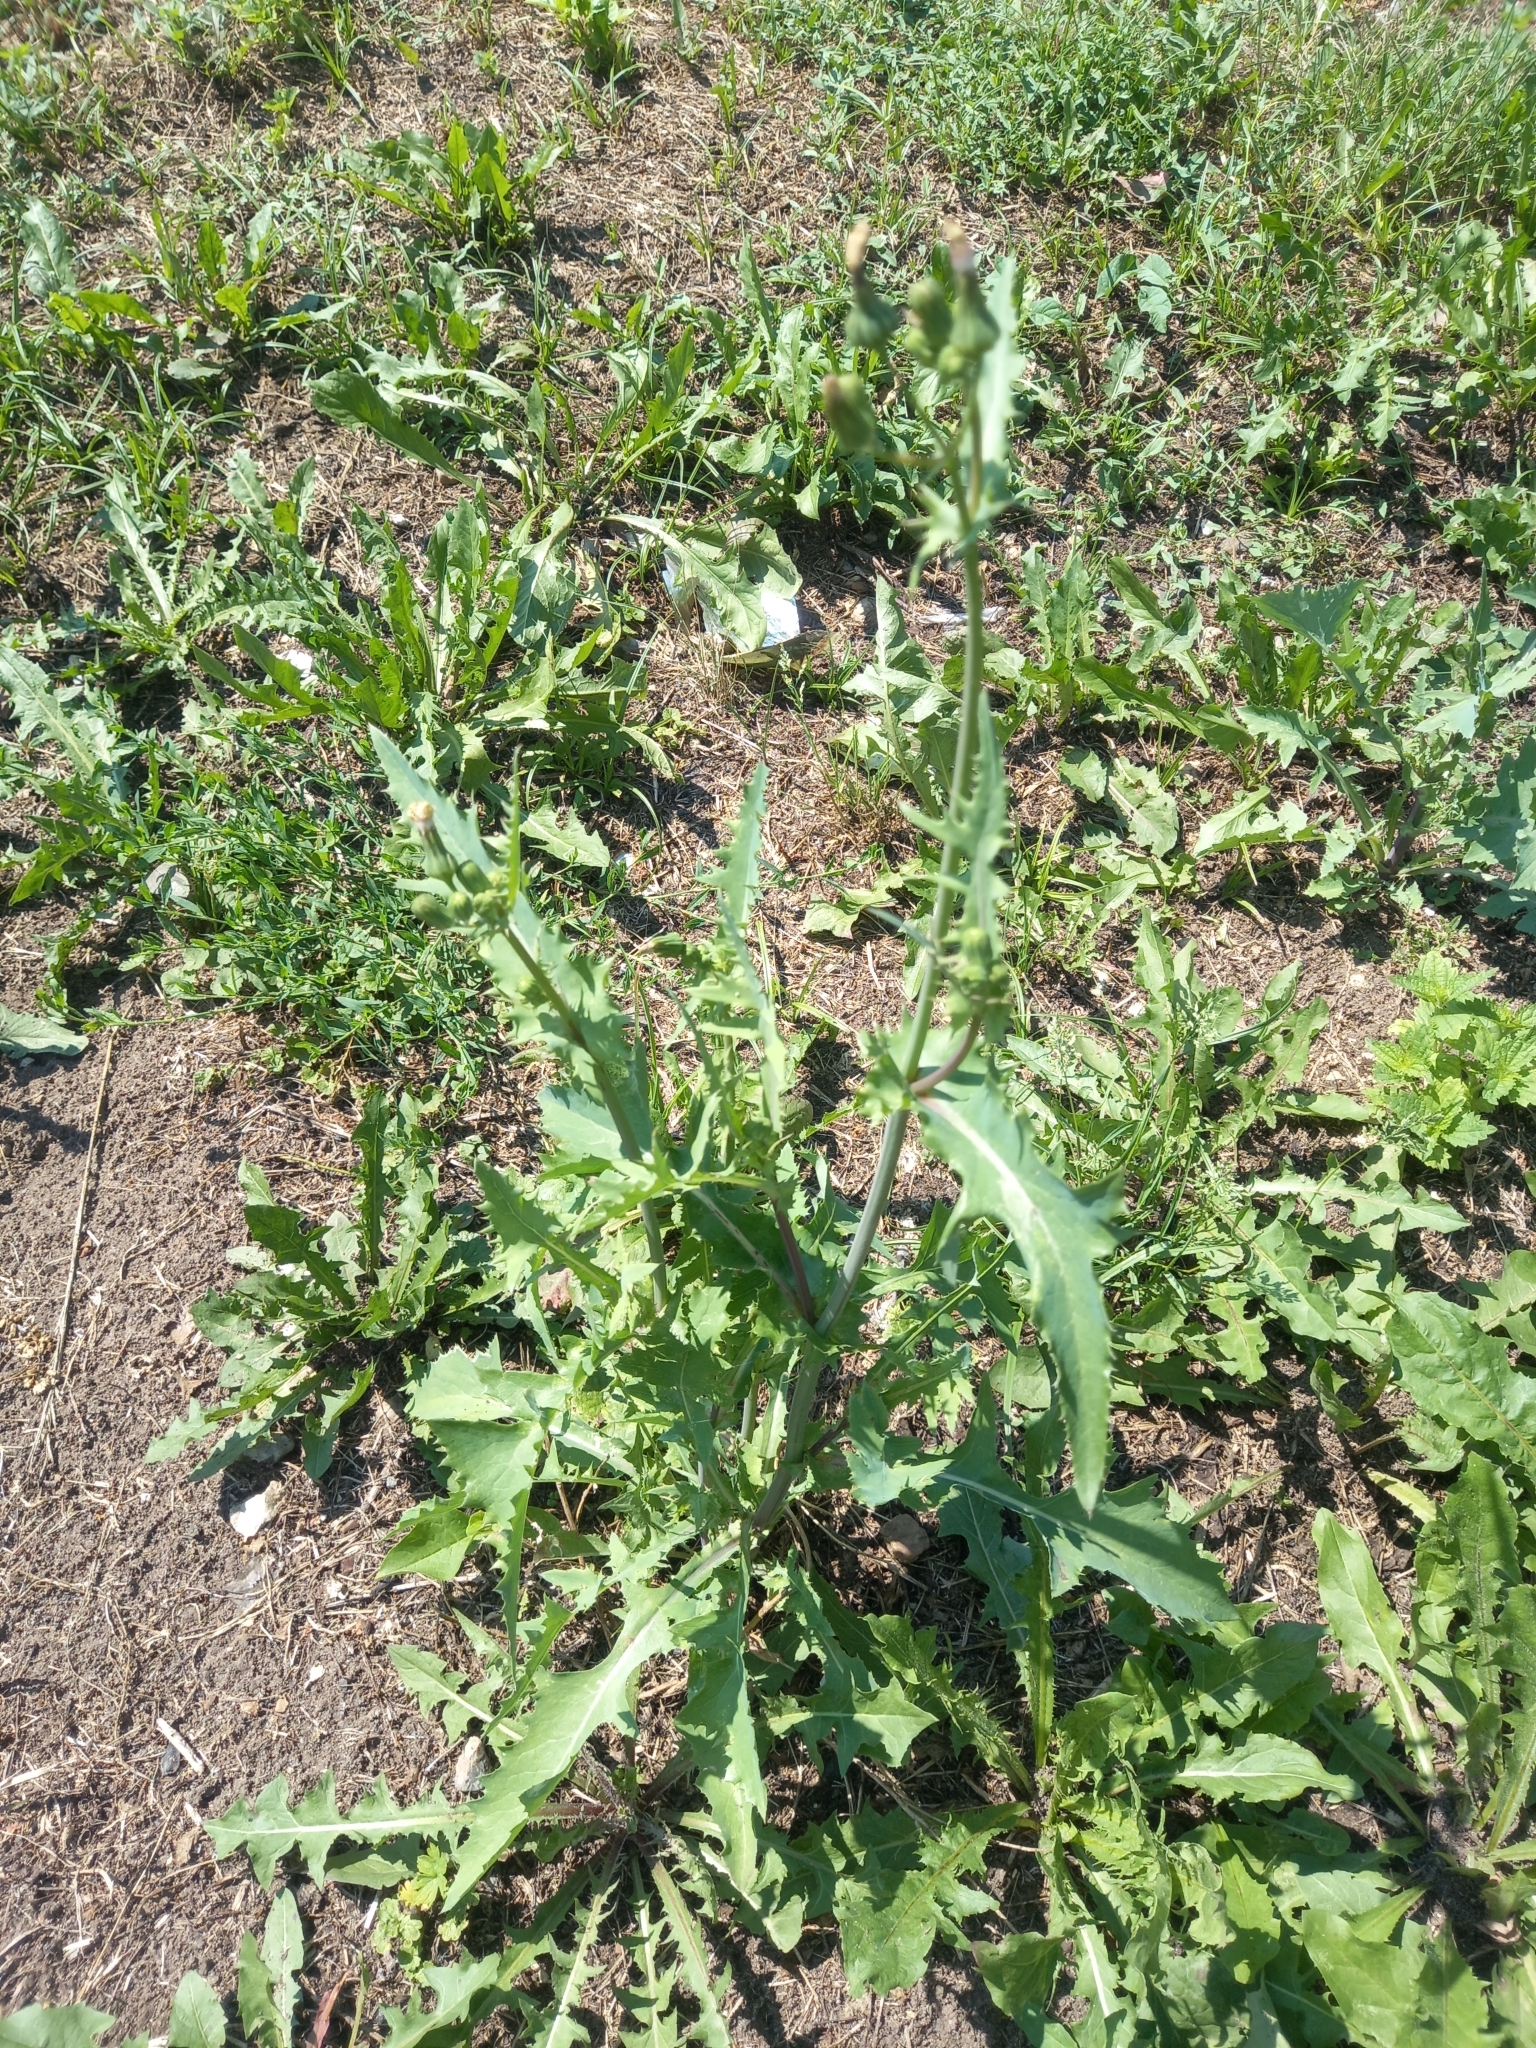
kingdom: Plantae
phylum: Tracheophyta
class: Magnoliopsida
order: Asterales
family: Asteraceae
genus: Sonchus
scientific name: Sonchus oleraceus
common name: Common sowthistle
